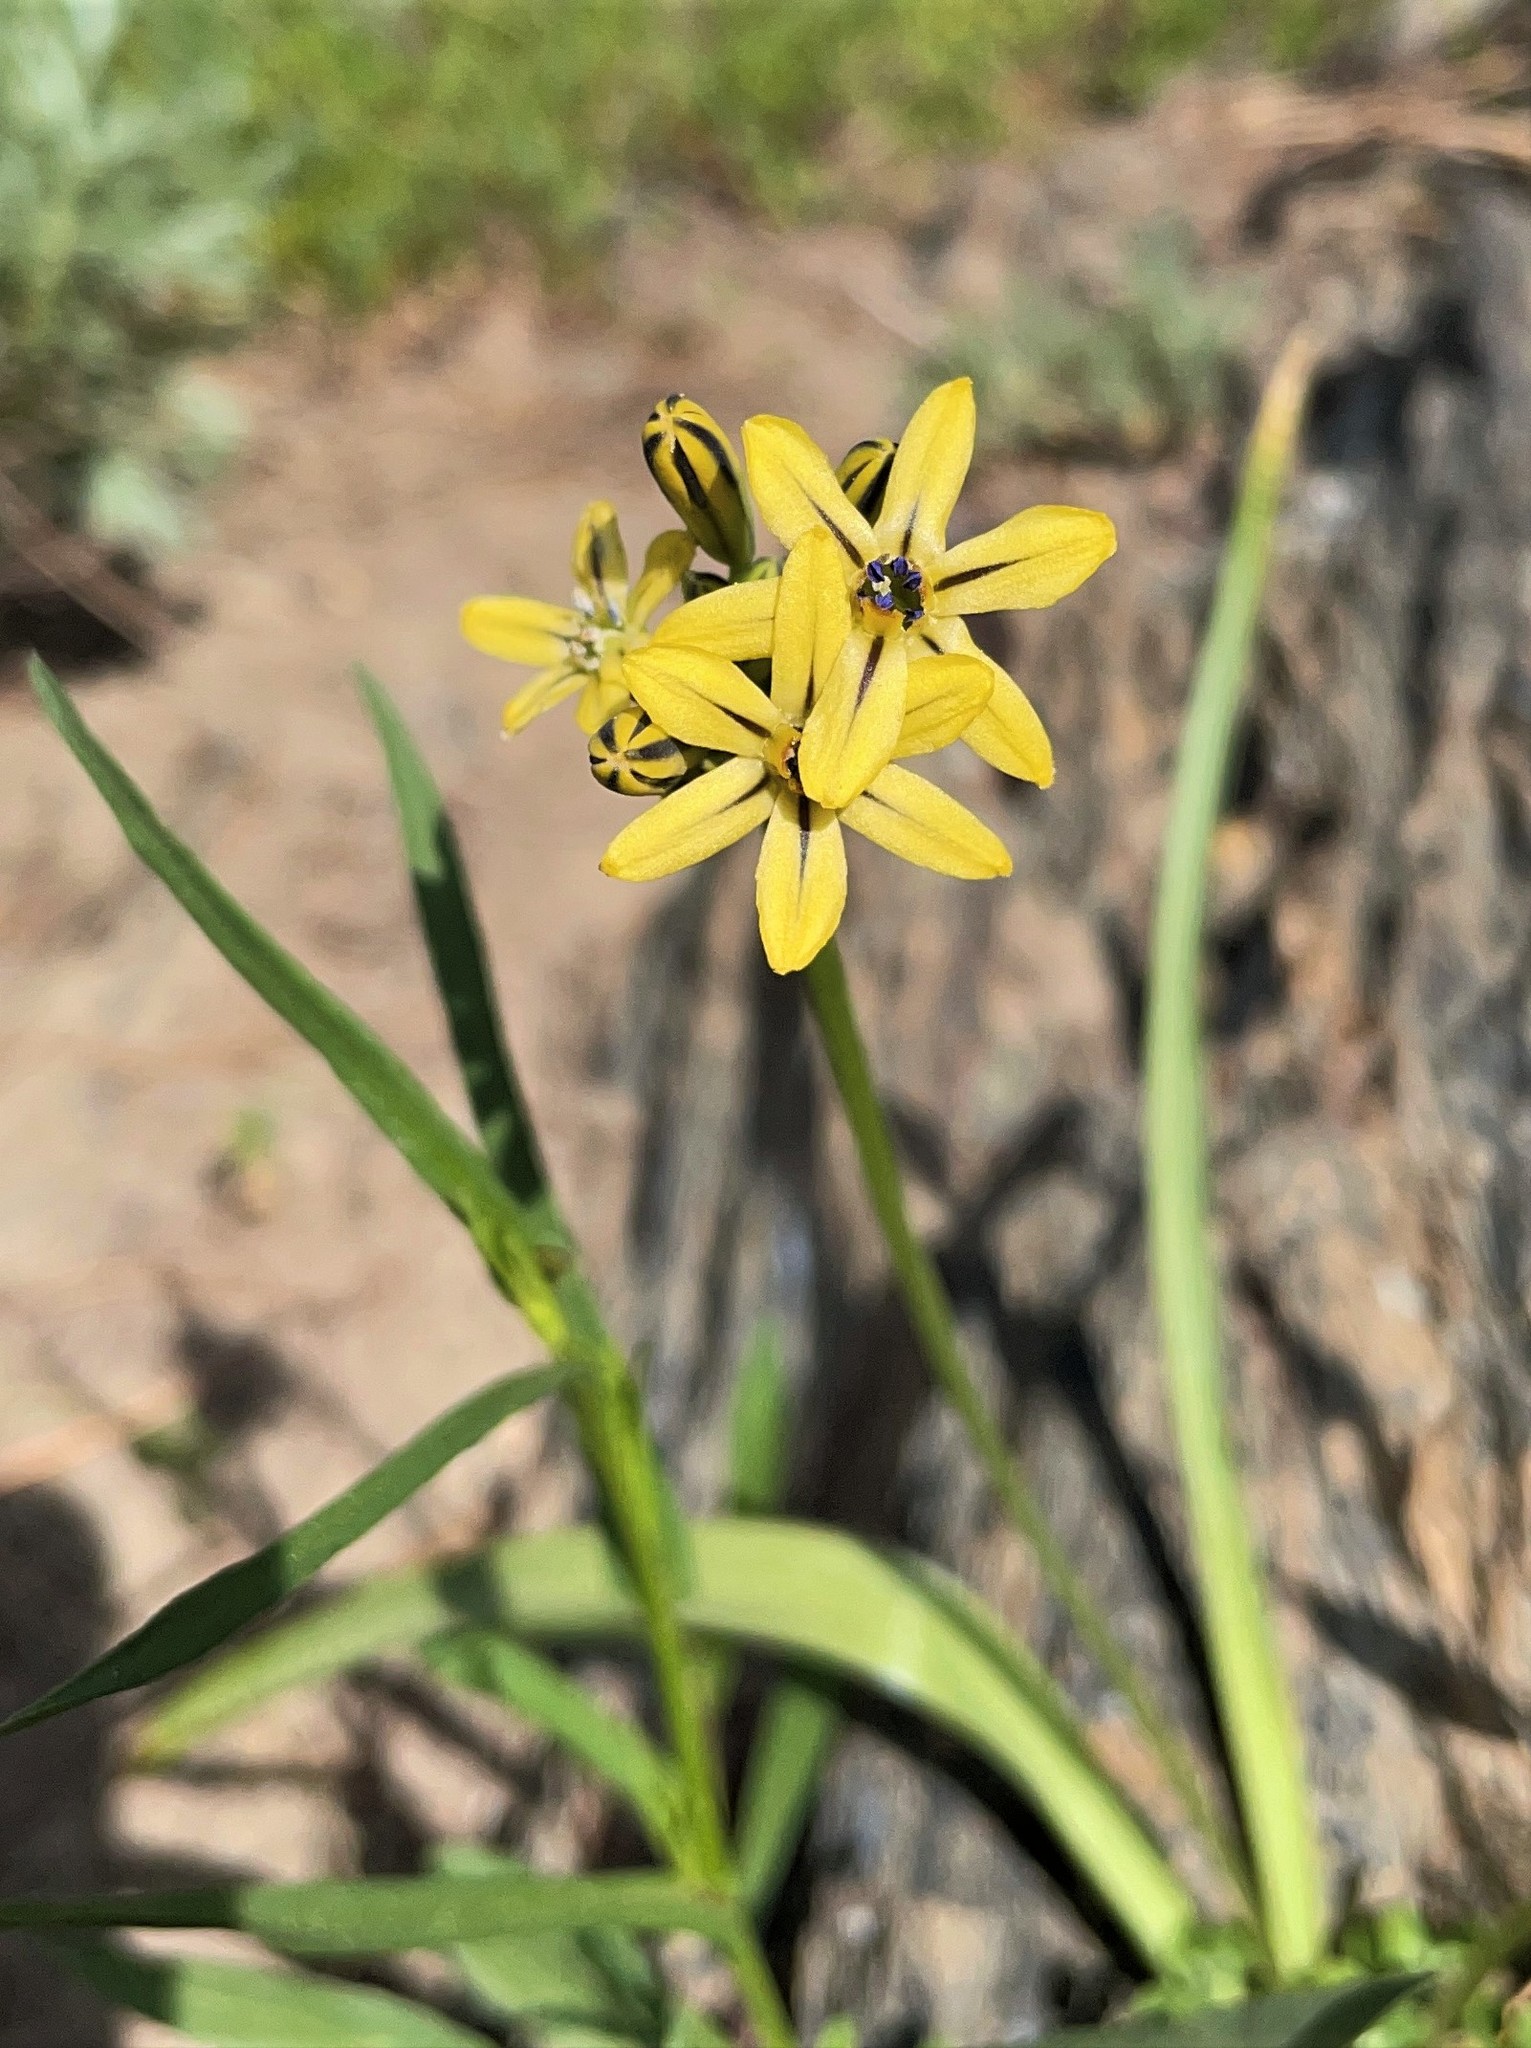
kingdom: Plantae
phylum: Tracheophyta
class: Liliopsida
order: Asparagales
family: Asparagaceae
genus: Triteleia
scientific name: Triteleia ixioides
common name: Yellow-brodiaea
